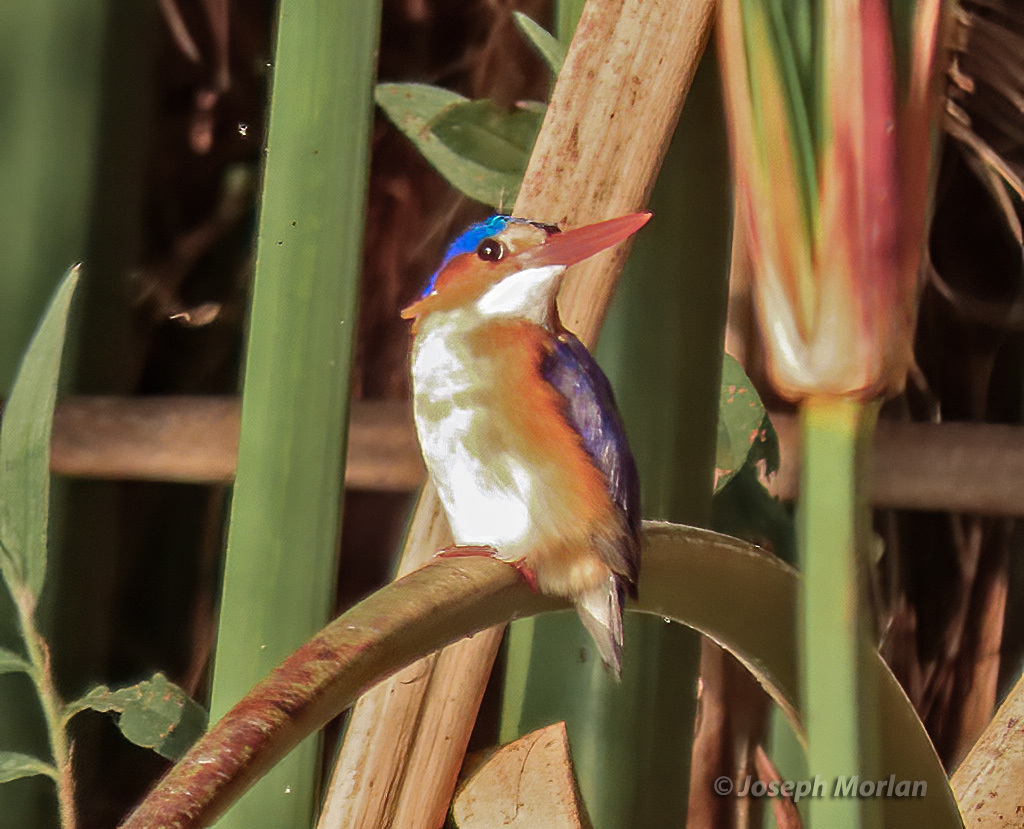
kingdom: Animalia
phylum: Chordata
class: Aves
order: Coraciiformes
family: Alcedinidae
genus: Corythornis
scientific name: Corythornis cristatus
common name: Malachite kingfisher
